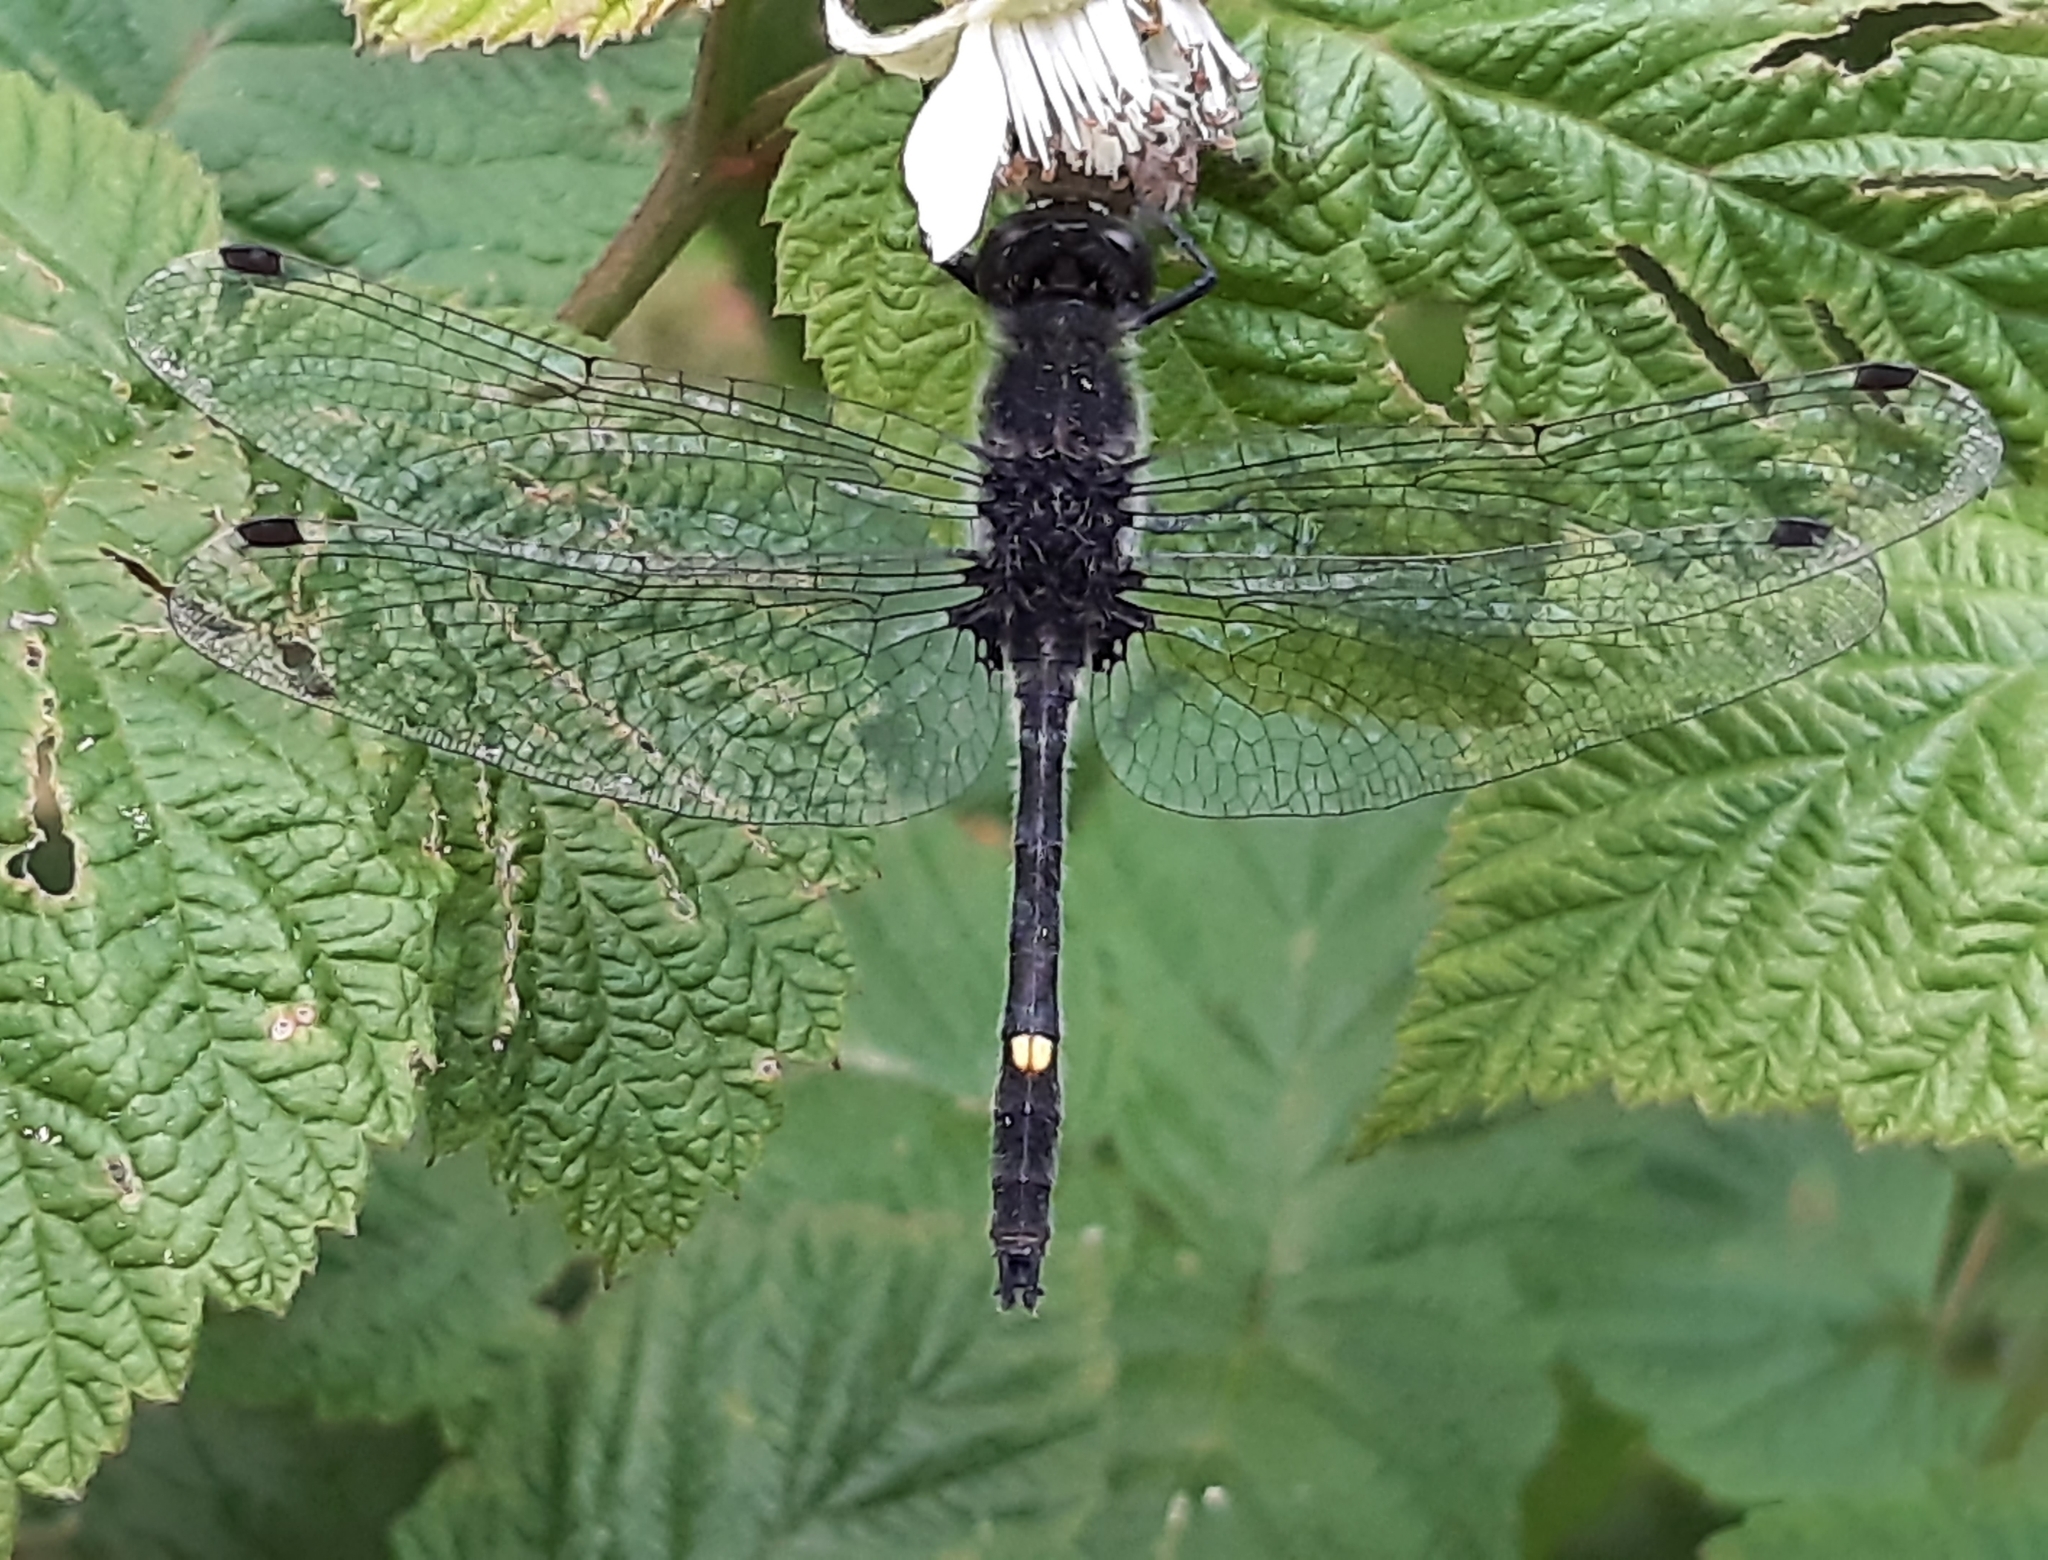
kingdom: Animalia
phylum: Arthropoda
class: Insecta
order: Odonata
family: Libellulidae
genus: Leucorrhinia
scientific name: Leucorrhinia intacta
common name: Dot-tailed whiteface
